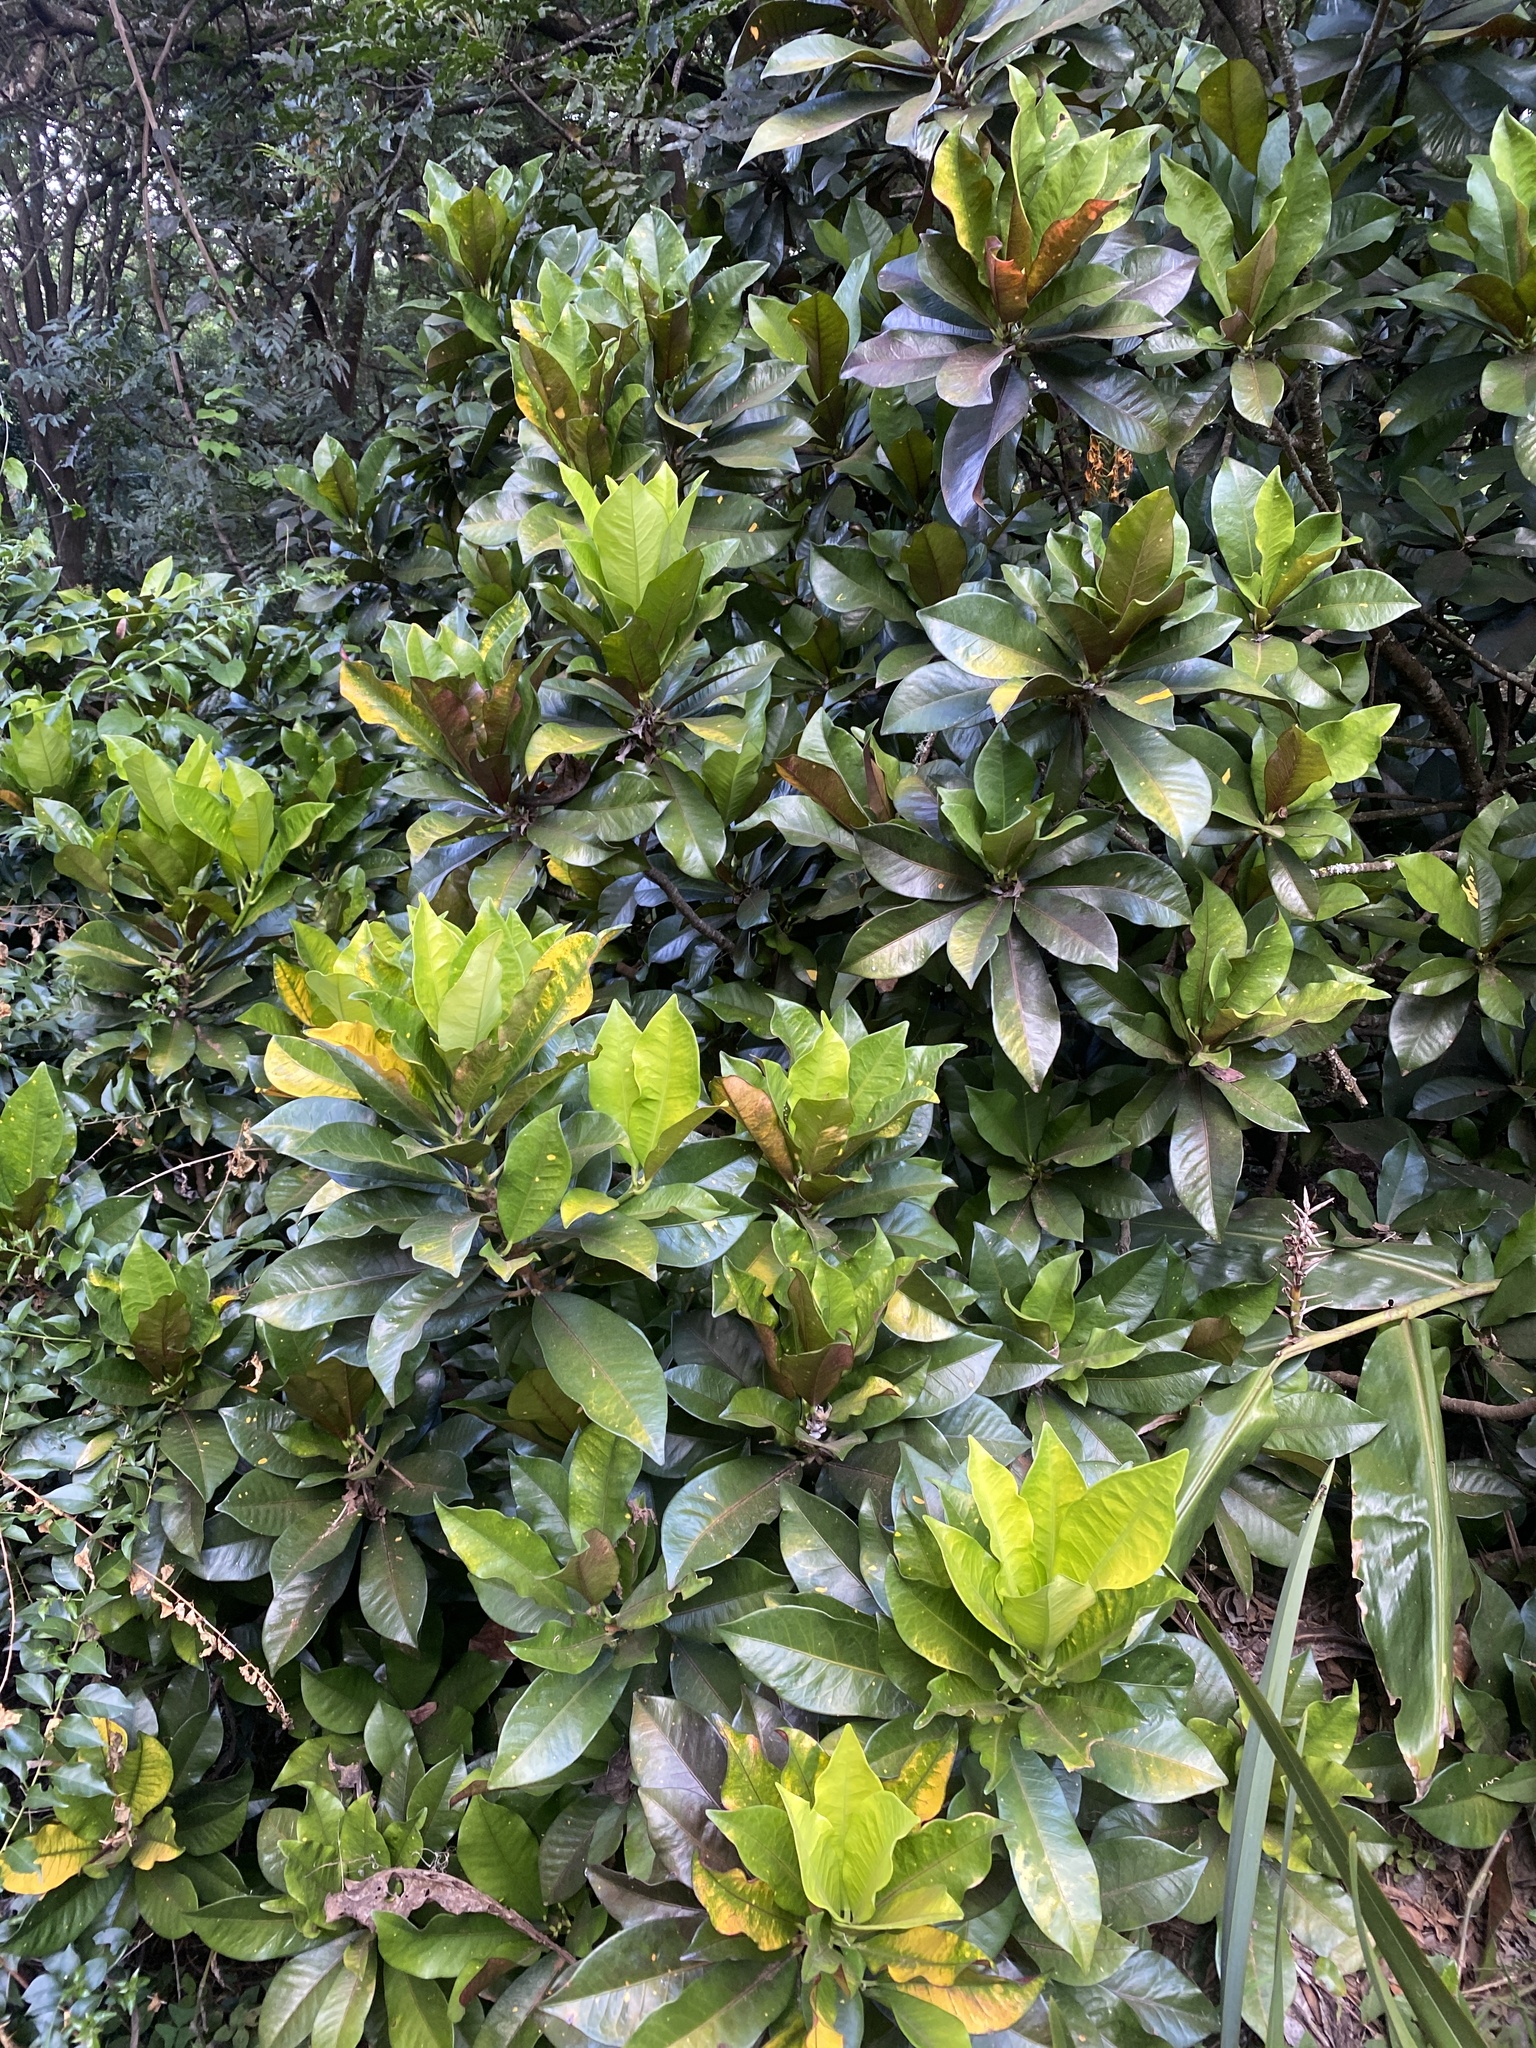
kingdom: Plantae
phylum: Tracheophyta
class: Magnoliopsida
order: Malpighiales
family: Euphorbiaceae
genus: Codiaeum
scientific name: Codiaeum variegatum
